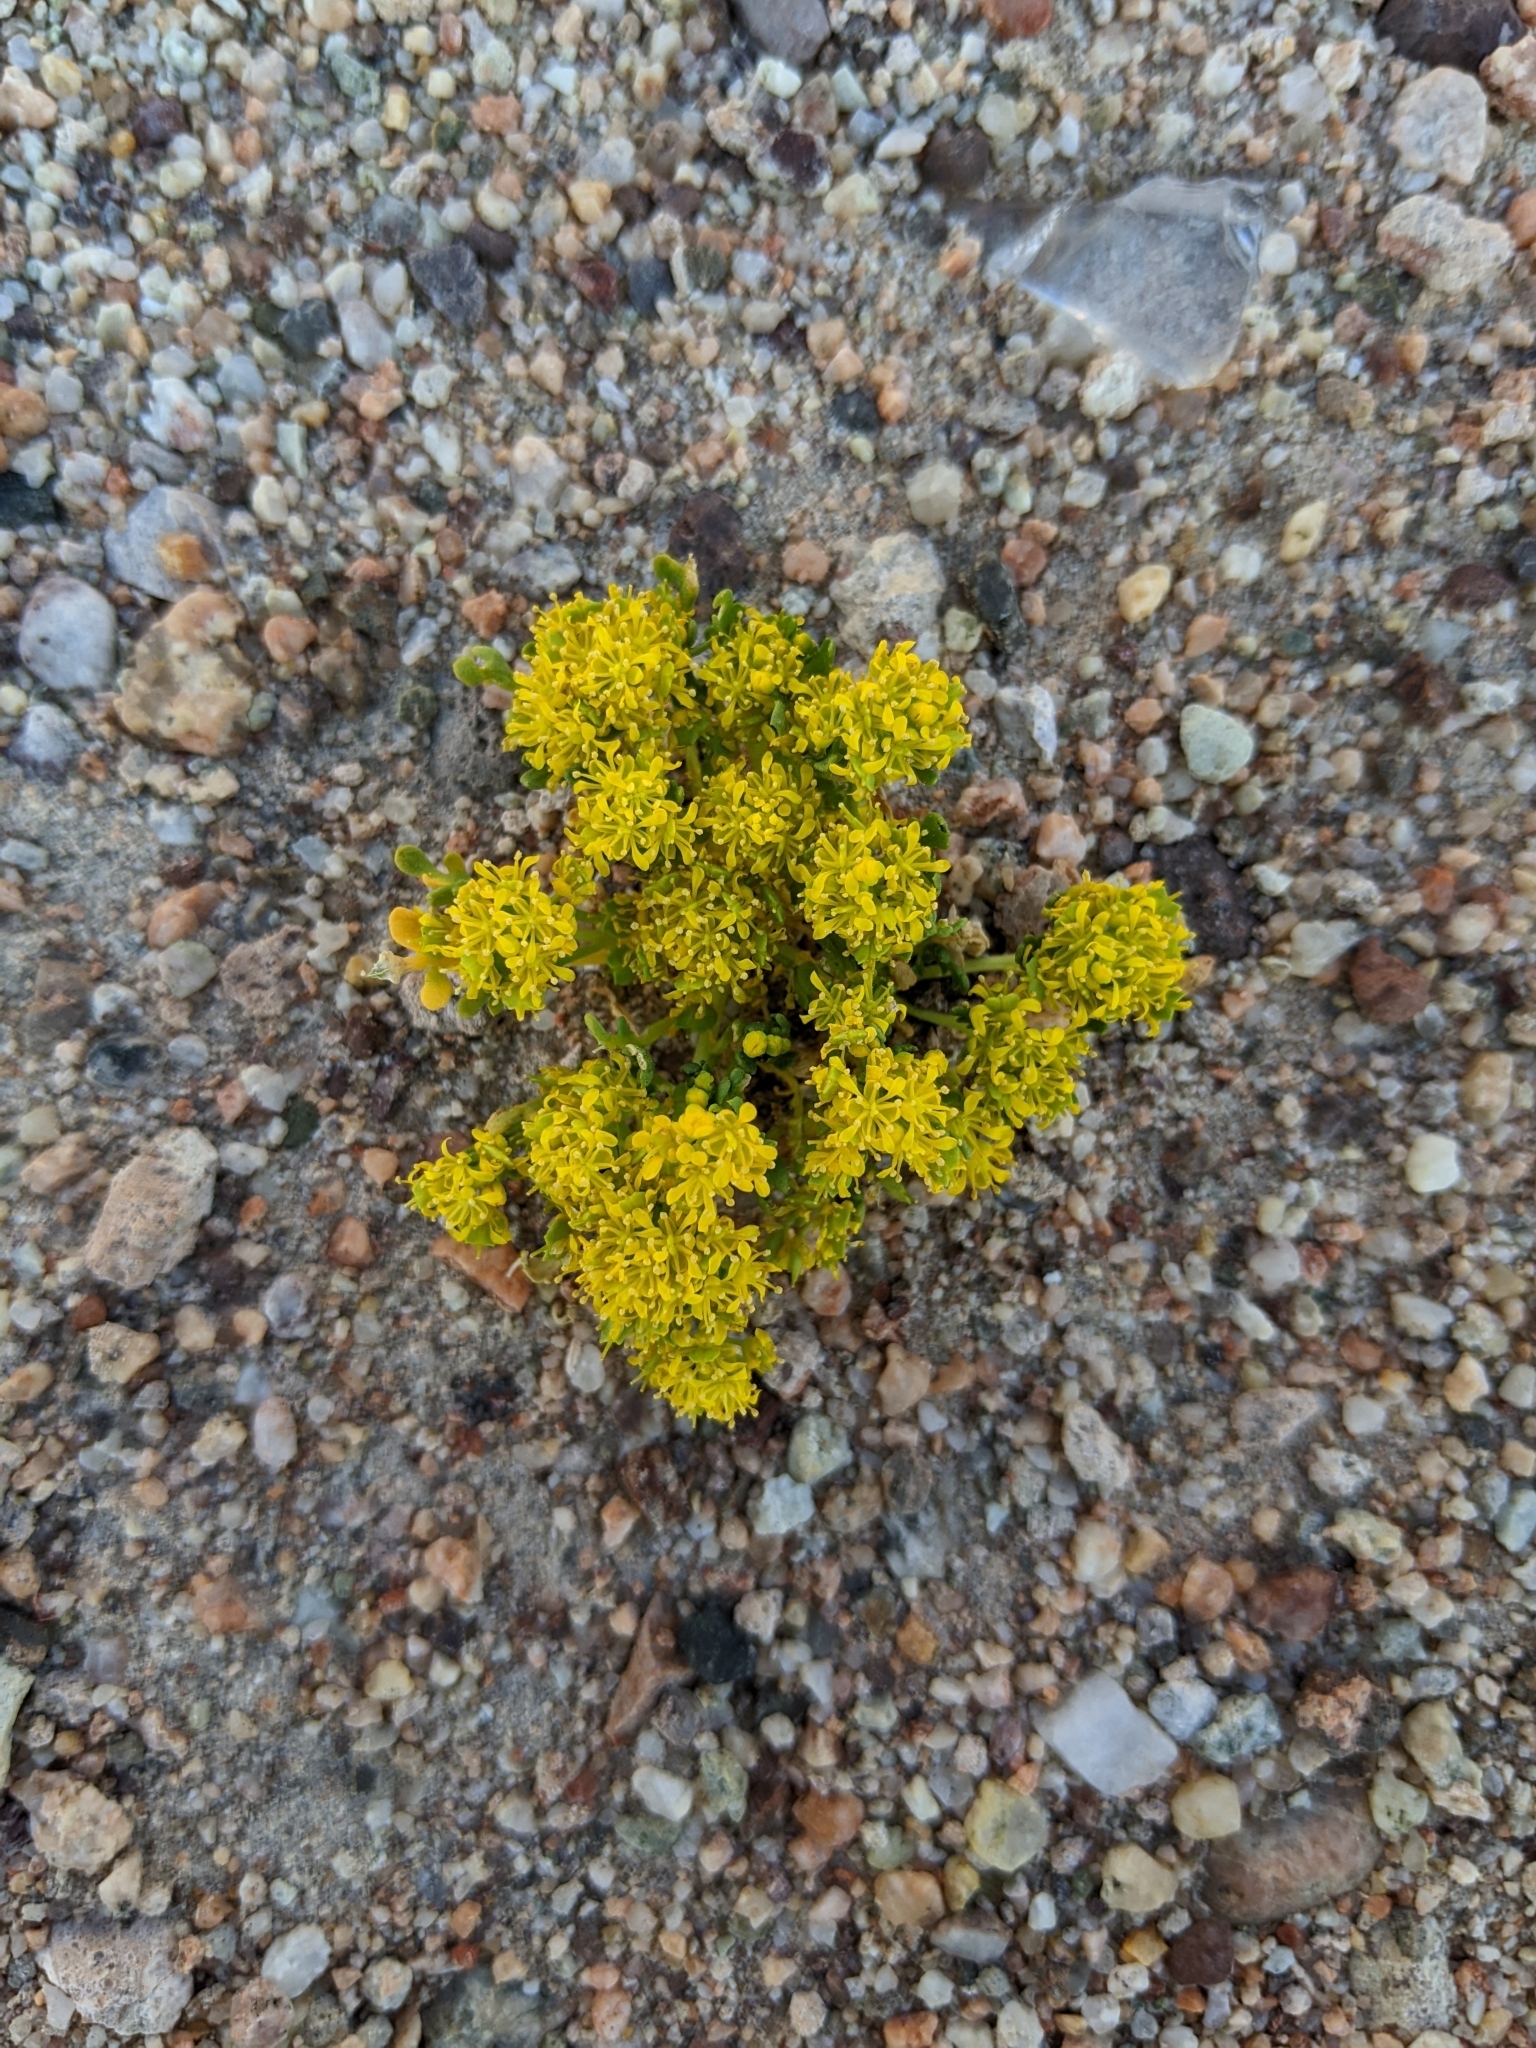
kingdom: Plantae
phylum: Tracheophyta
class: Magnoliopsida
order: Brassicales
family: Brassicaceae
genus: Lepidium
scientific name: Lepidium flavum
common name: Yellow pepperwort
